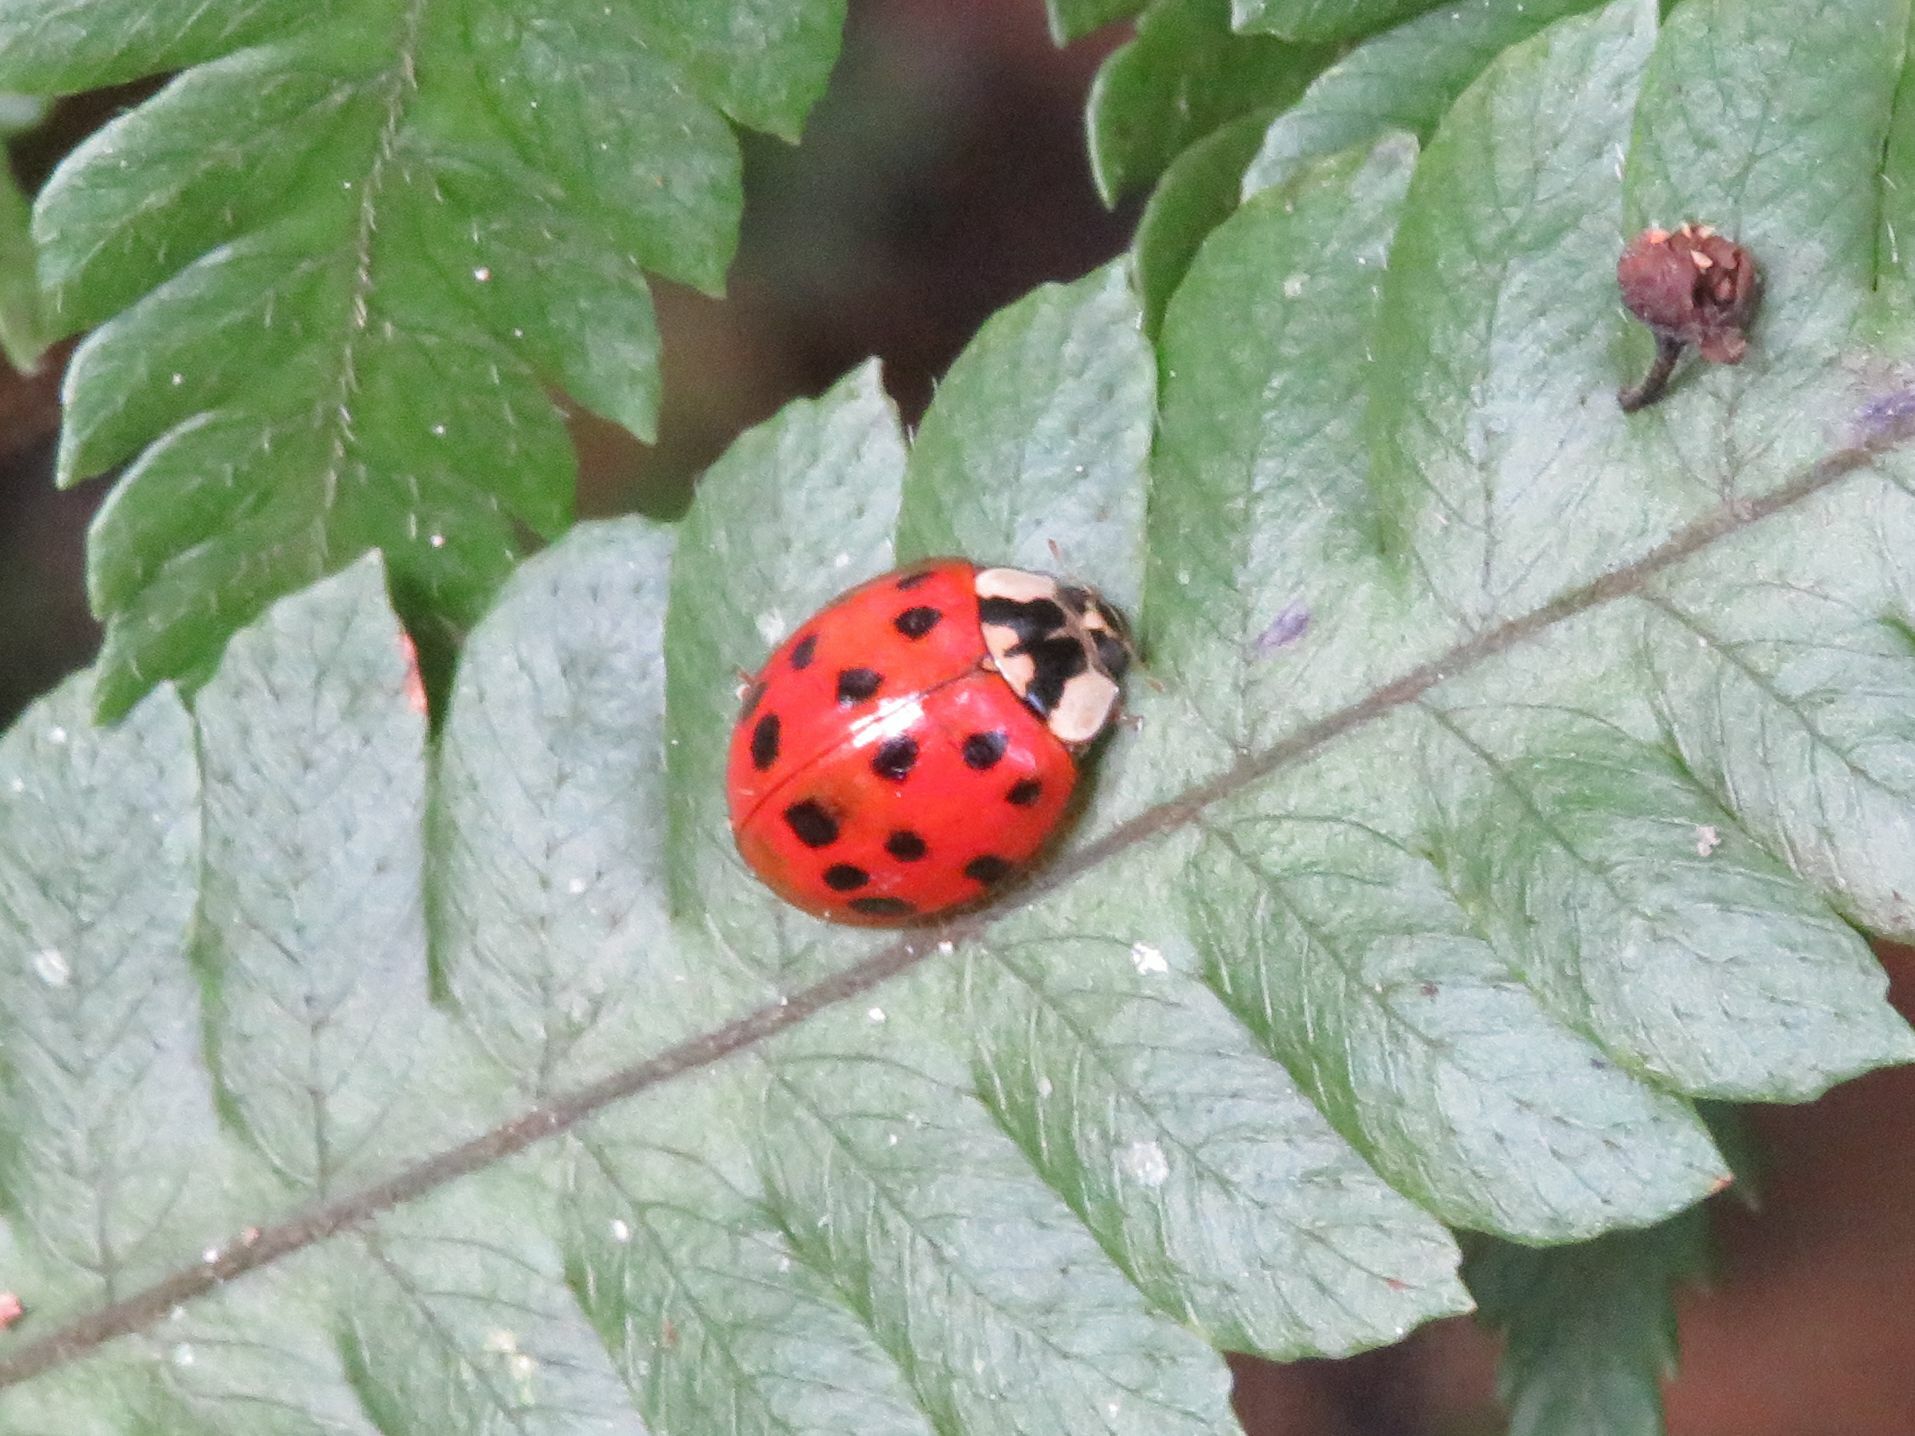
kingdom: Animalia
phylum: Arthropoda
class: Insecta
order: Coleoptera
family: Coccinellidae
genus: Harmonia
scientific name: Harmonia axyridis
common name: Harlequin ladybird
